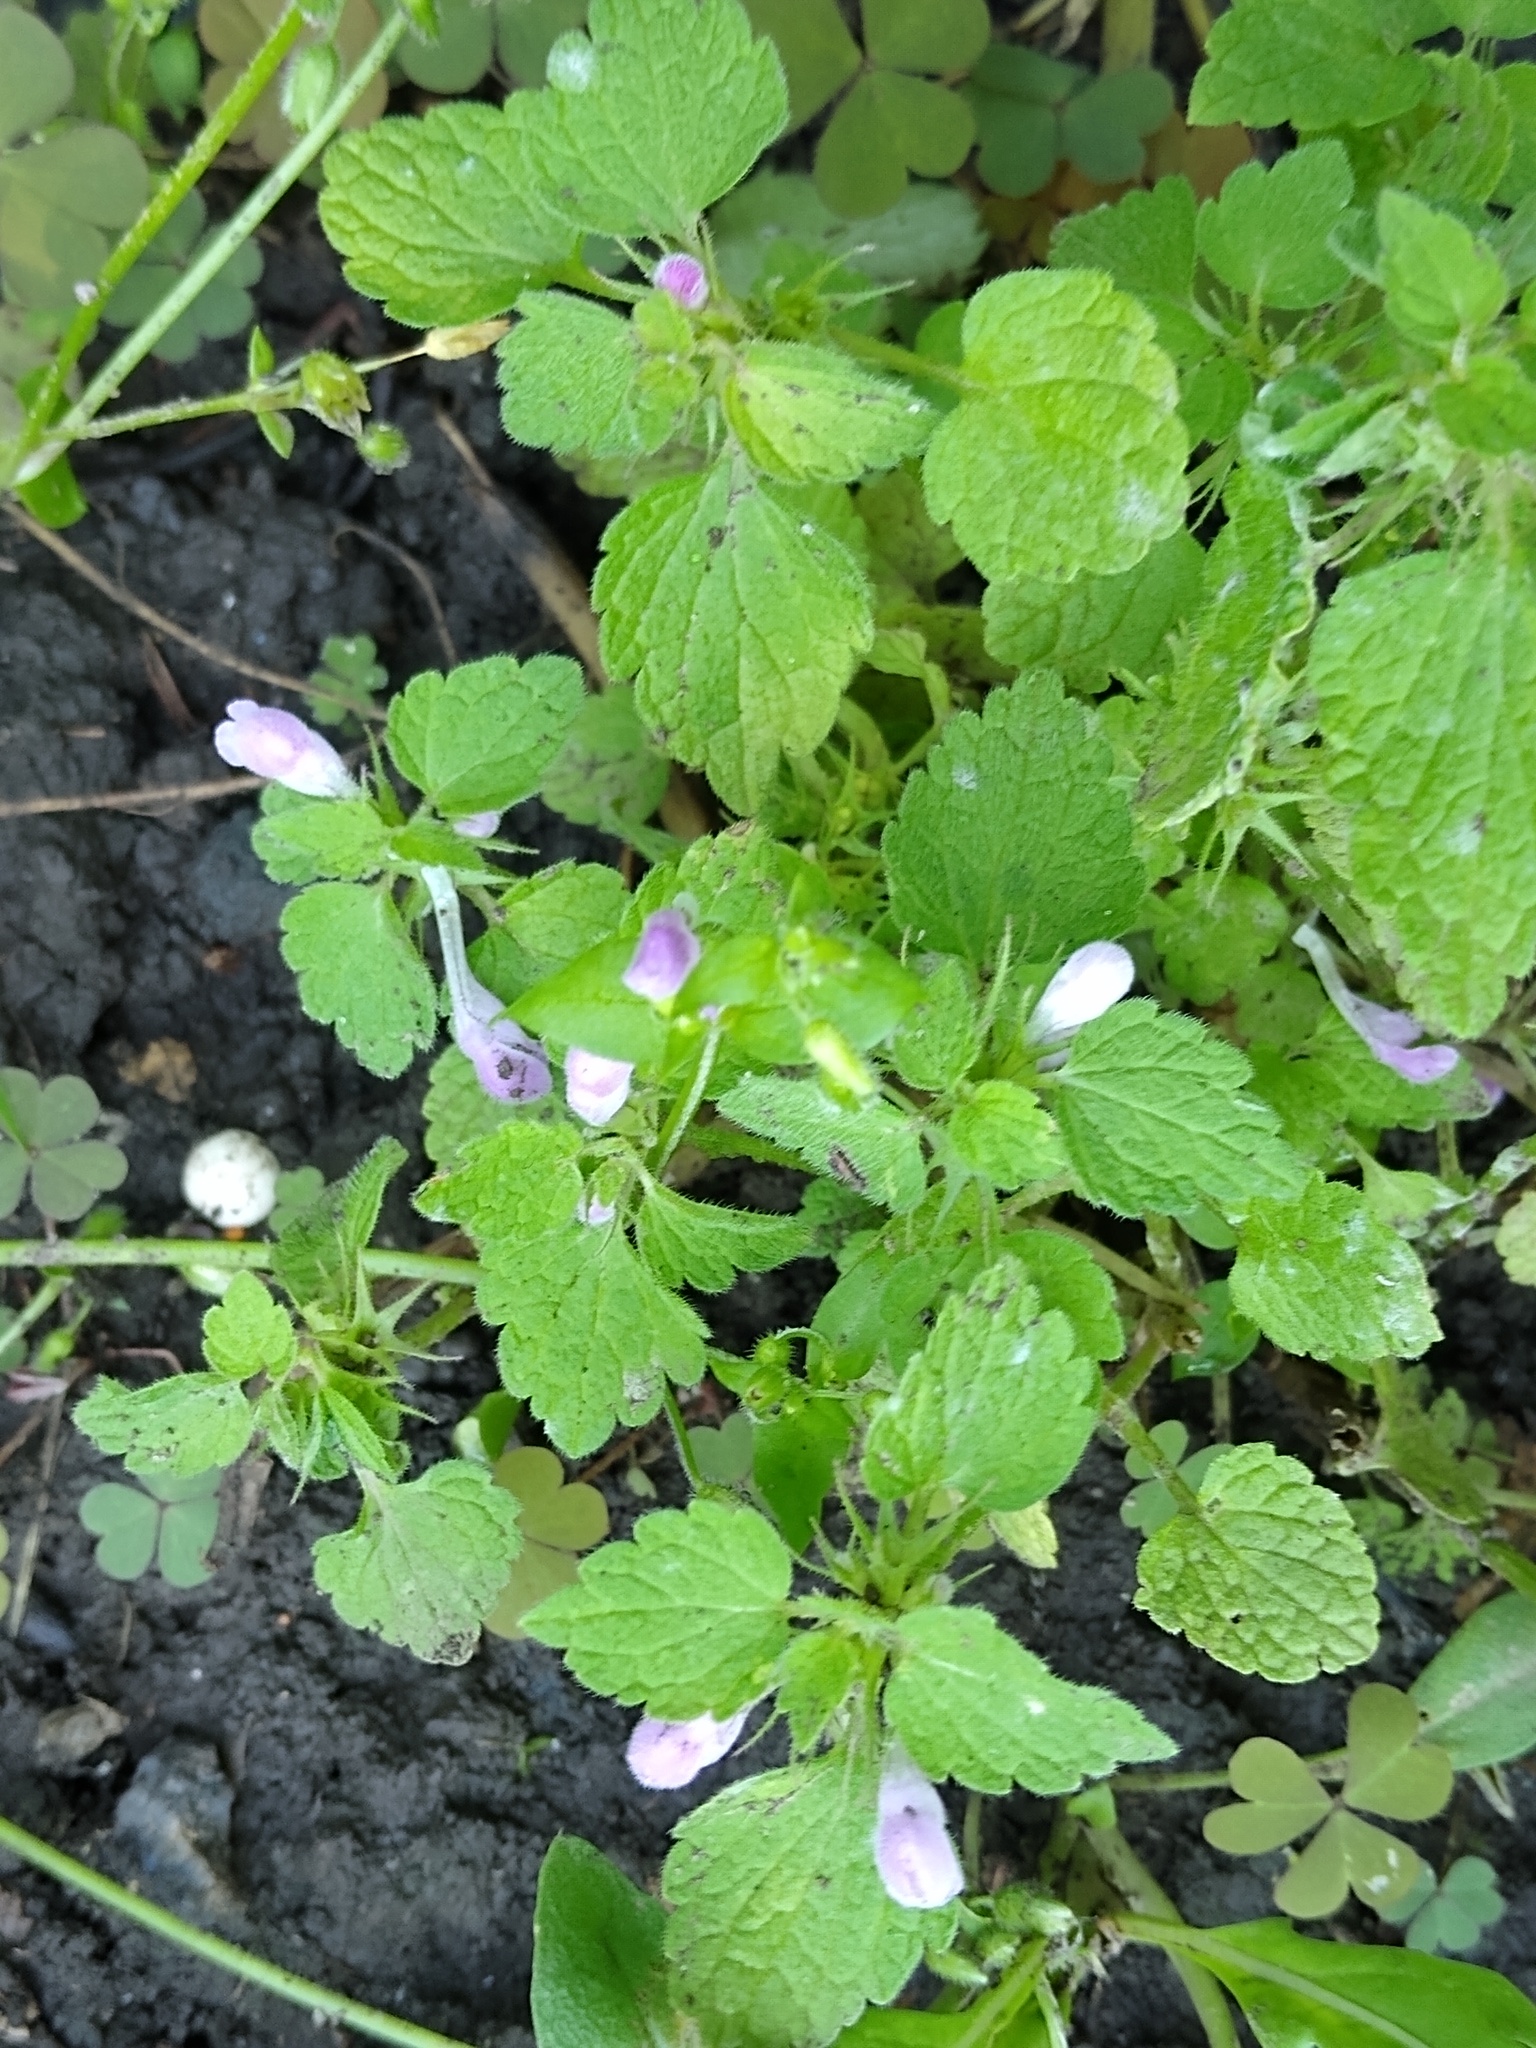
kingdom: Plantae
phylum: Tracheophyta
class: Magnoliopsida
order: Lamiales
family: Lamiaceae
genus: Lamium
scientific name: Lamium purpureum
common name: Red dead-nettle
